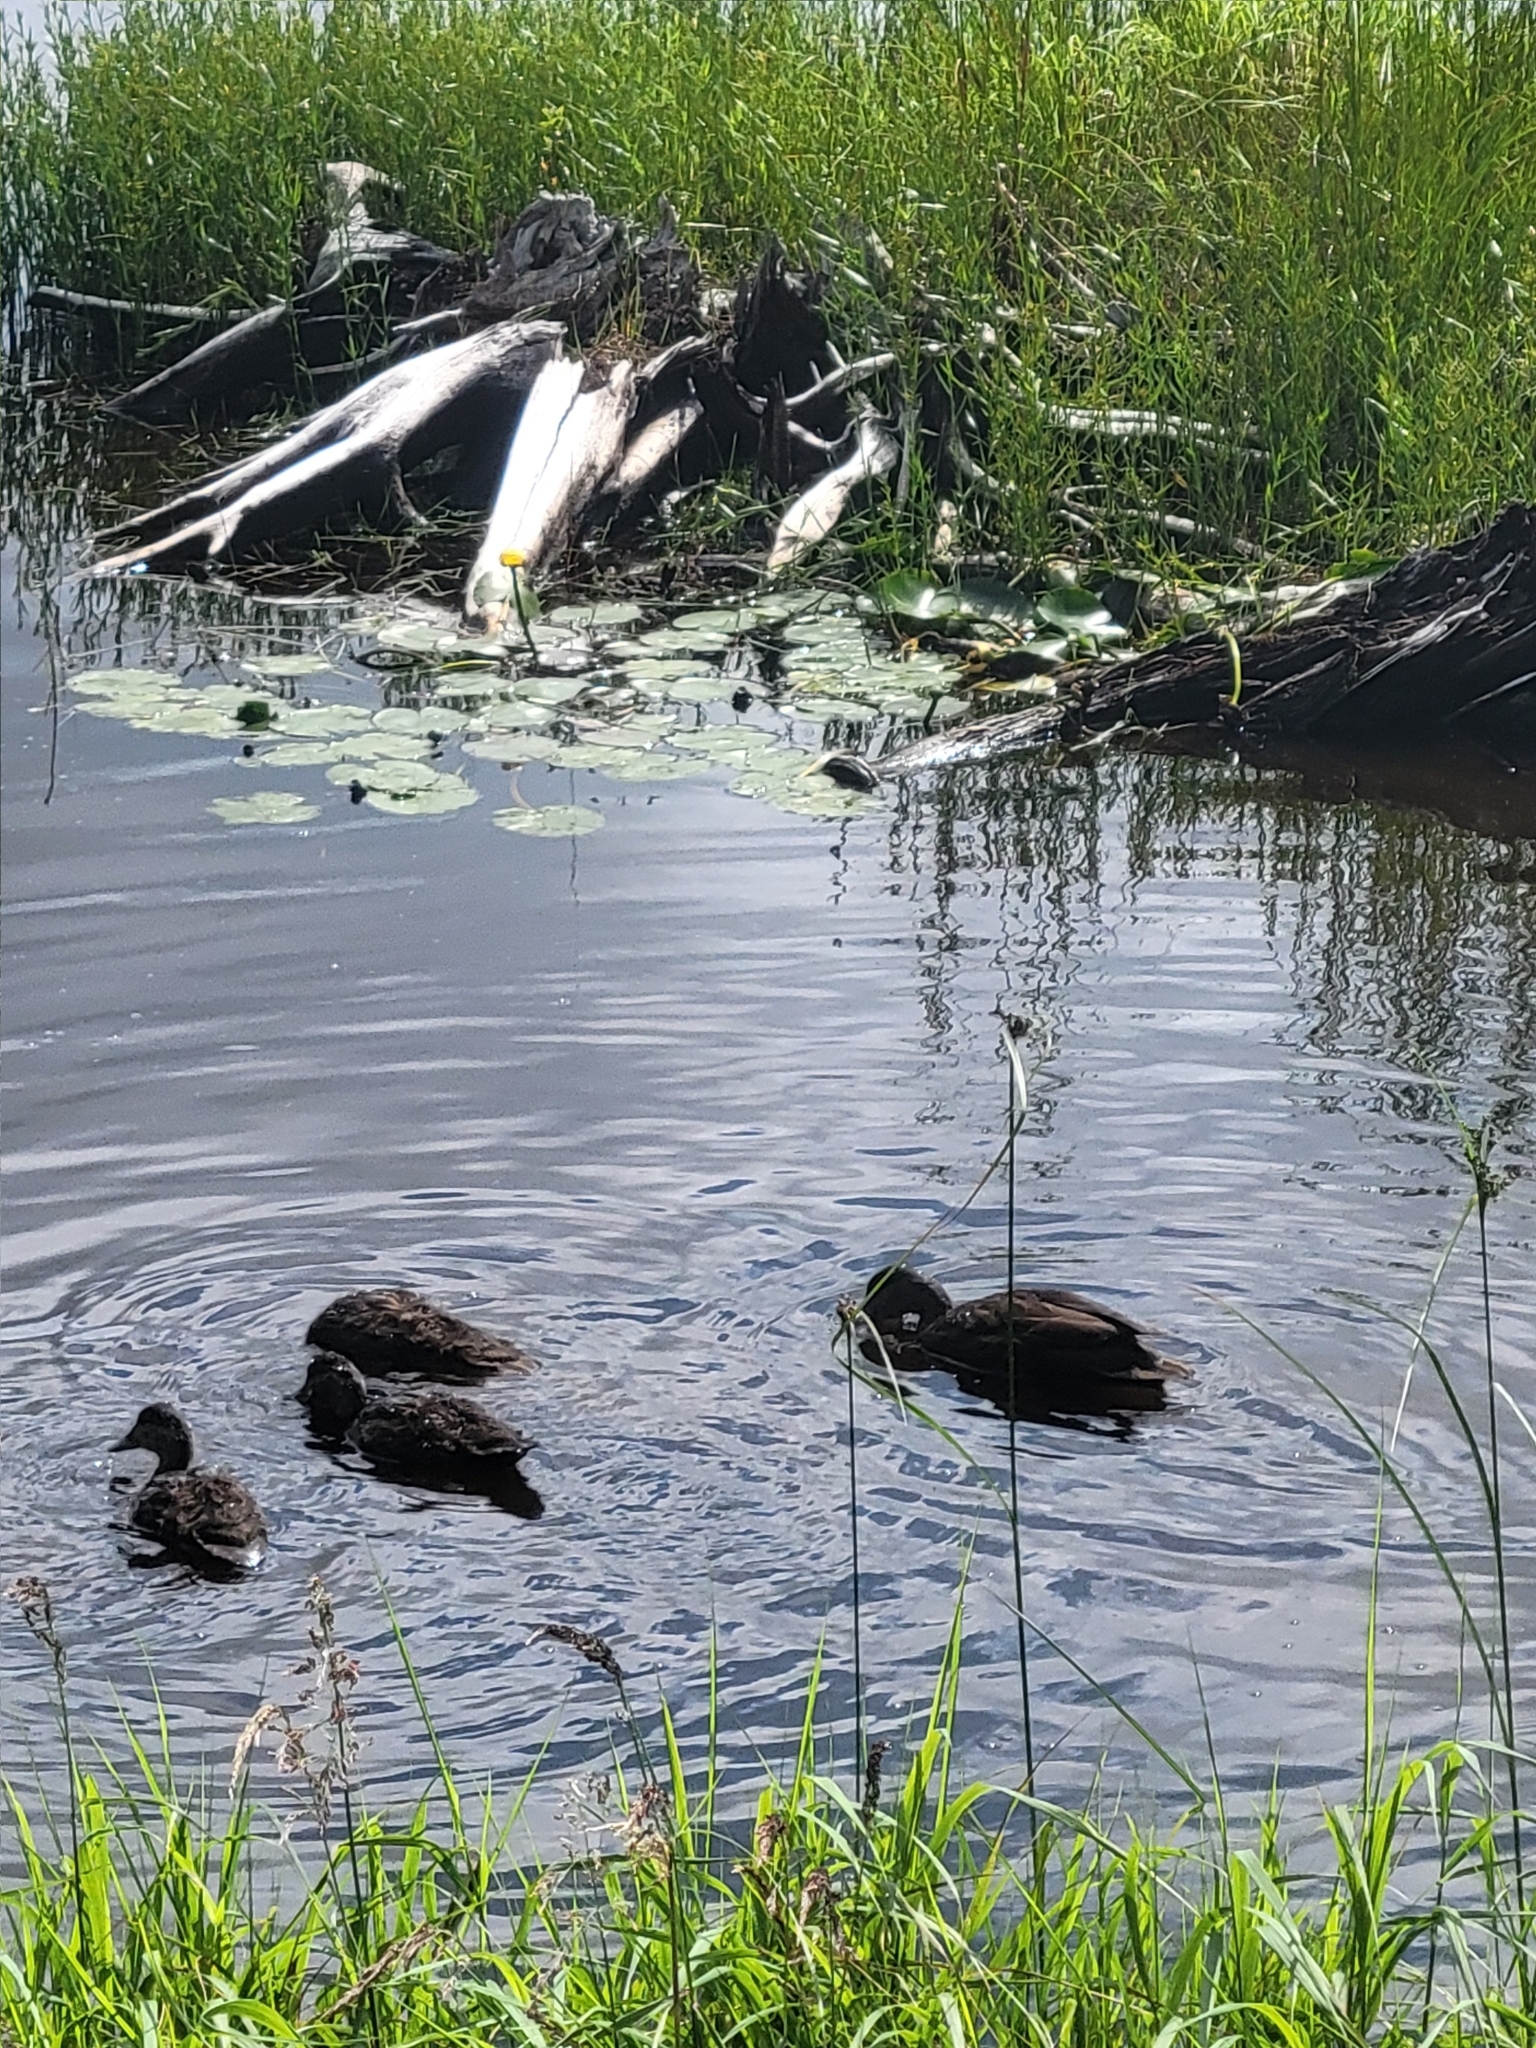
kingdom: Animalia
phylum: Chordata
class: Aves
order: Anseriformes
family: Anatidae
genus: Anas
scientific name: Anas rubripes
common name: American black duck
